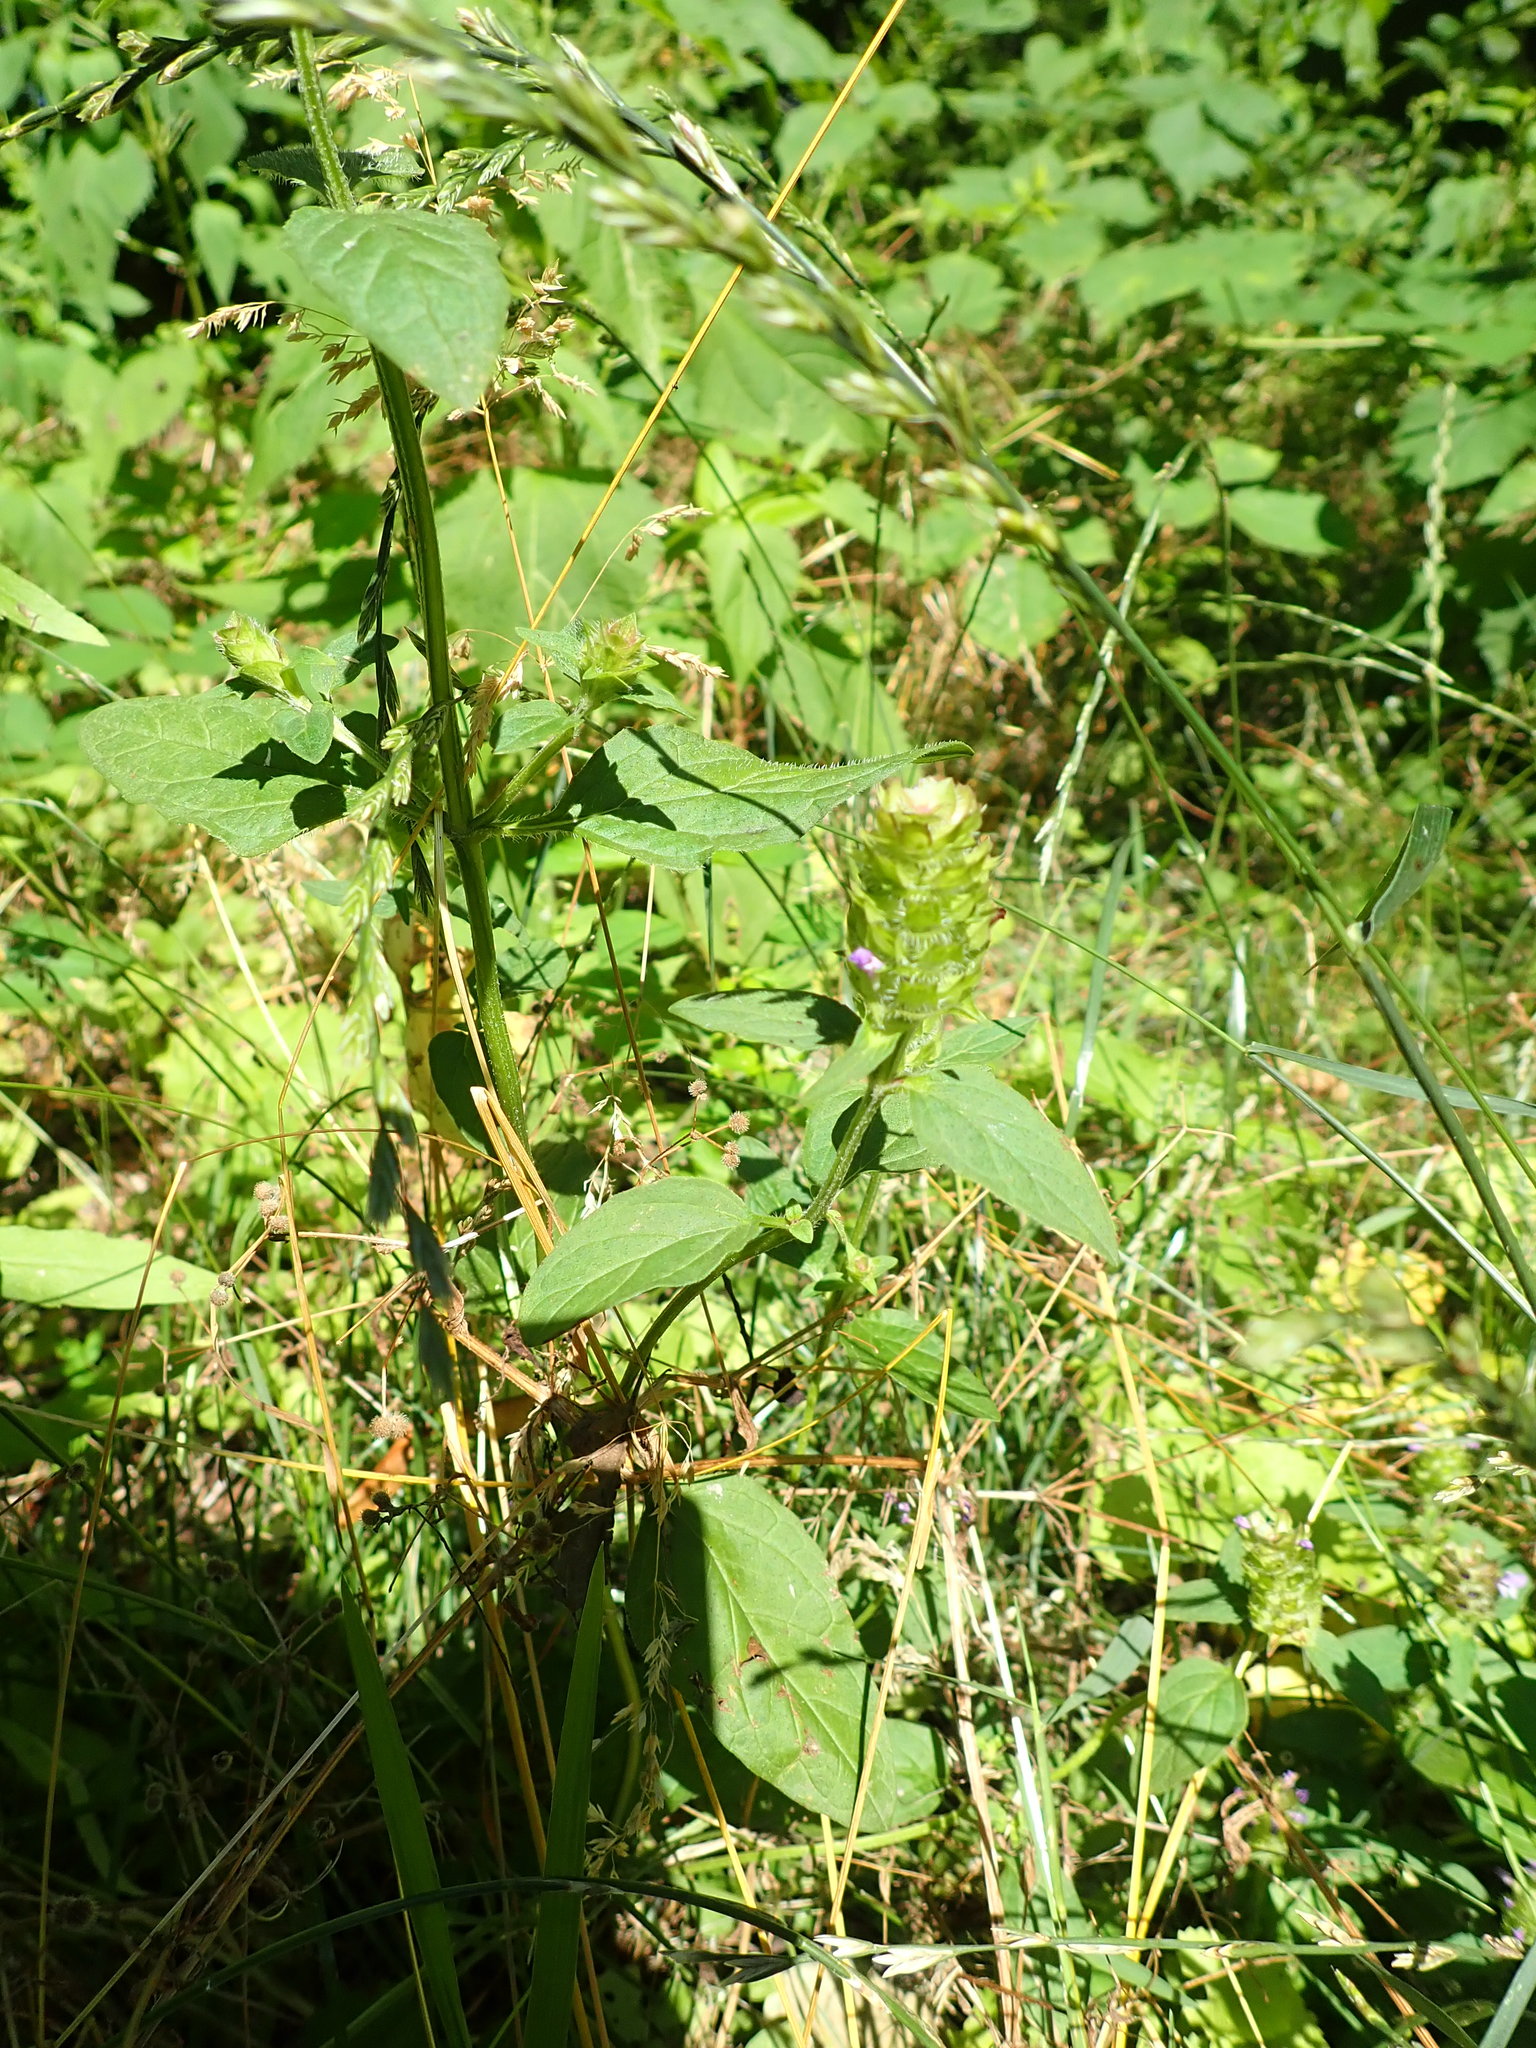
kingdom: Plantae
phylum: Tracheophyta
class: Magnoliopsida
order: Lamiales
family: Lamiaceae
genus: Prunella
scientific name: Prunella vulgaris
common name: Heal-all
